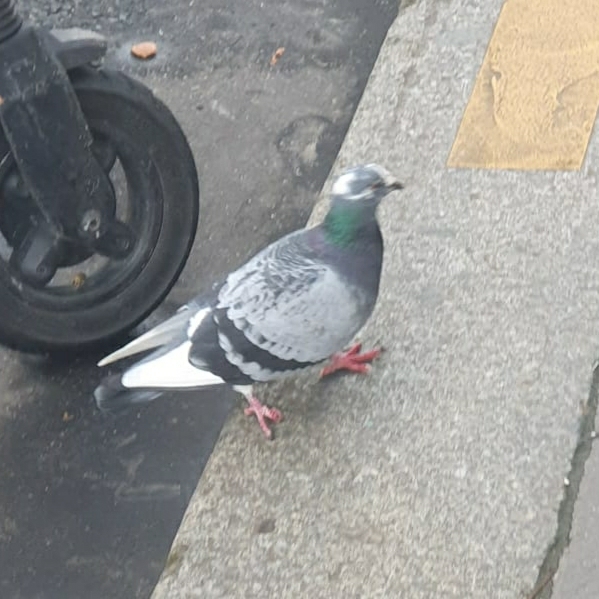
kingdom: Animalia
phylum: Chordata
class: Aves
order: Columbiformes
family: Columbidae
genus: Columba
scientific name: Columba livia
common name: Rock pigeon
